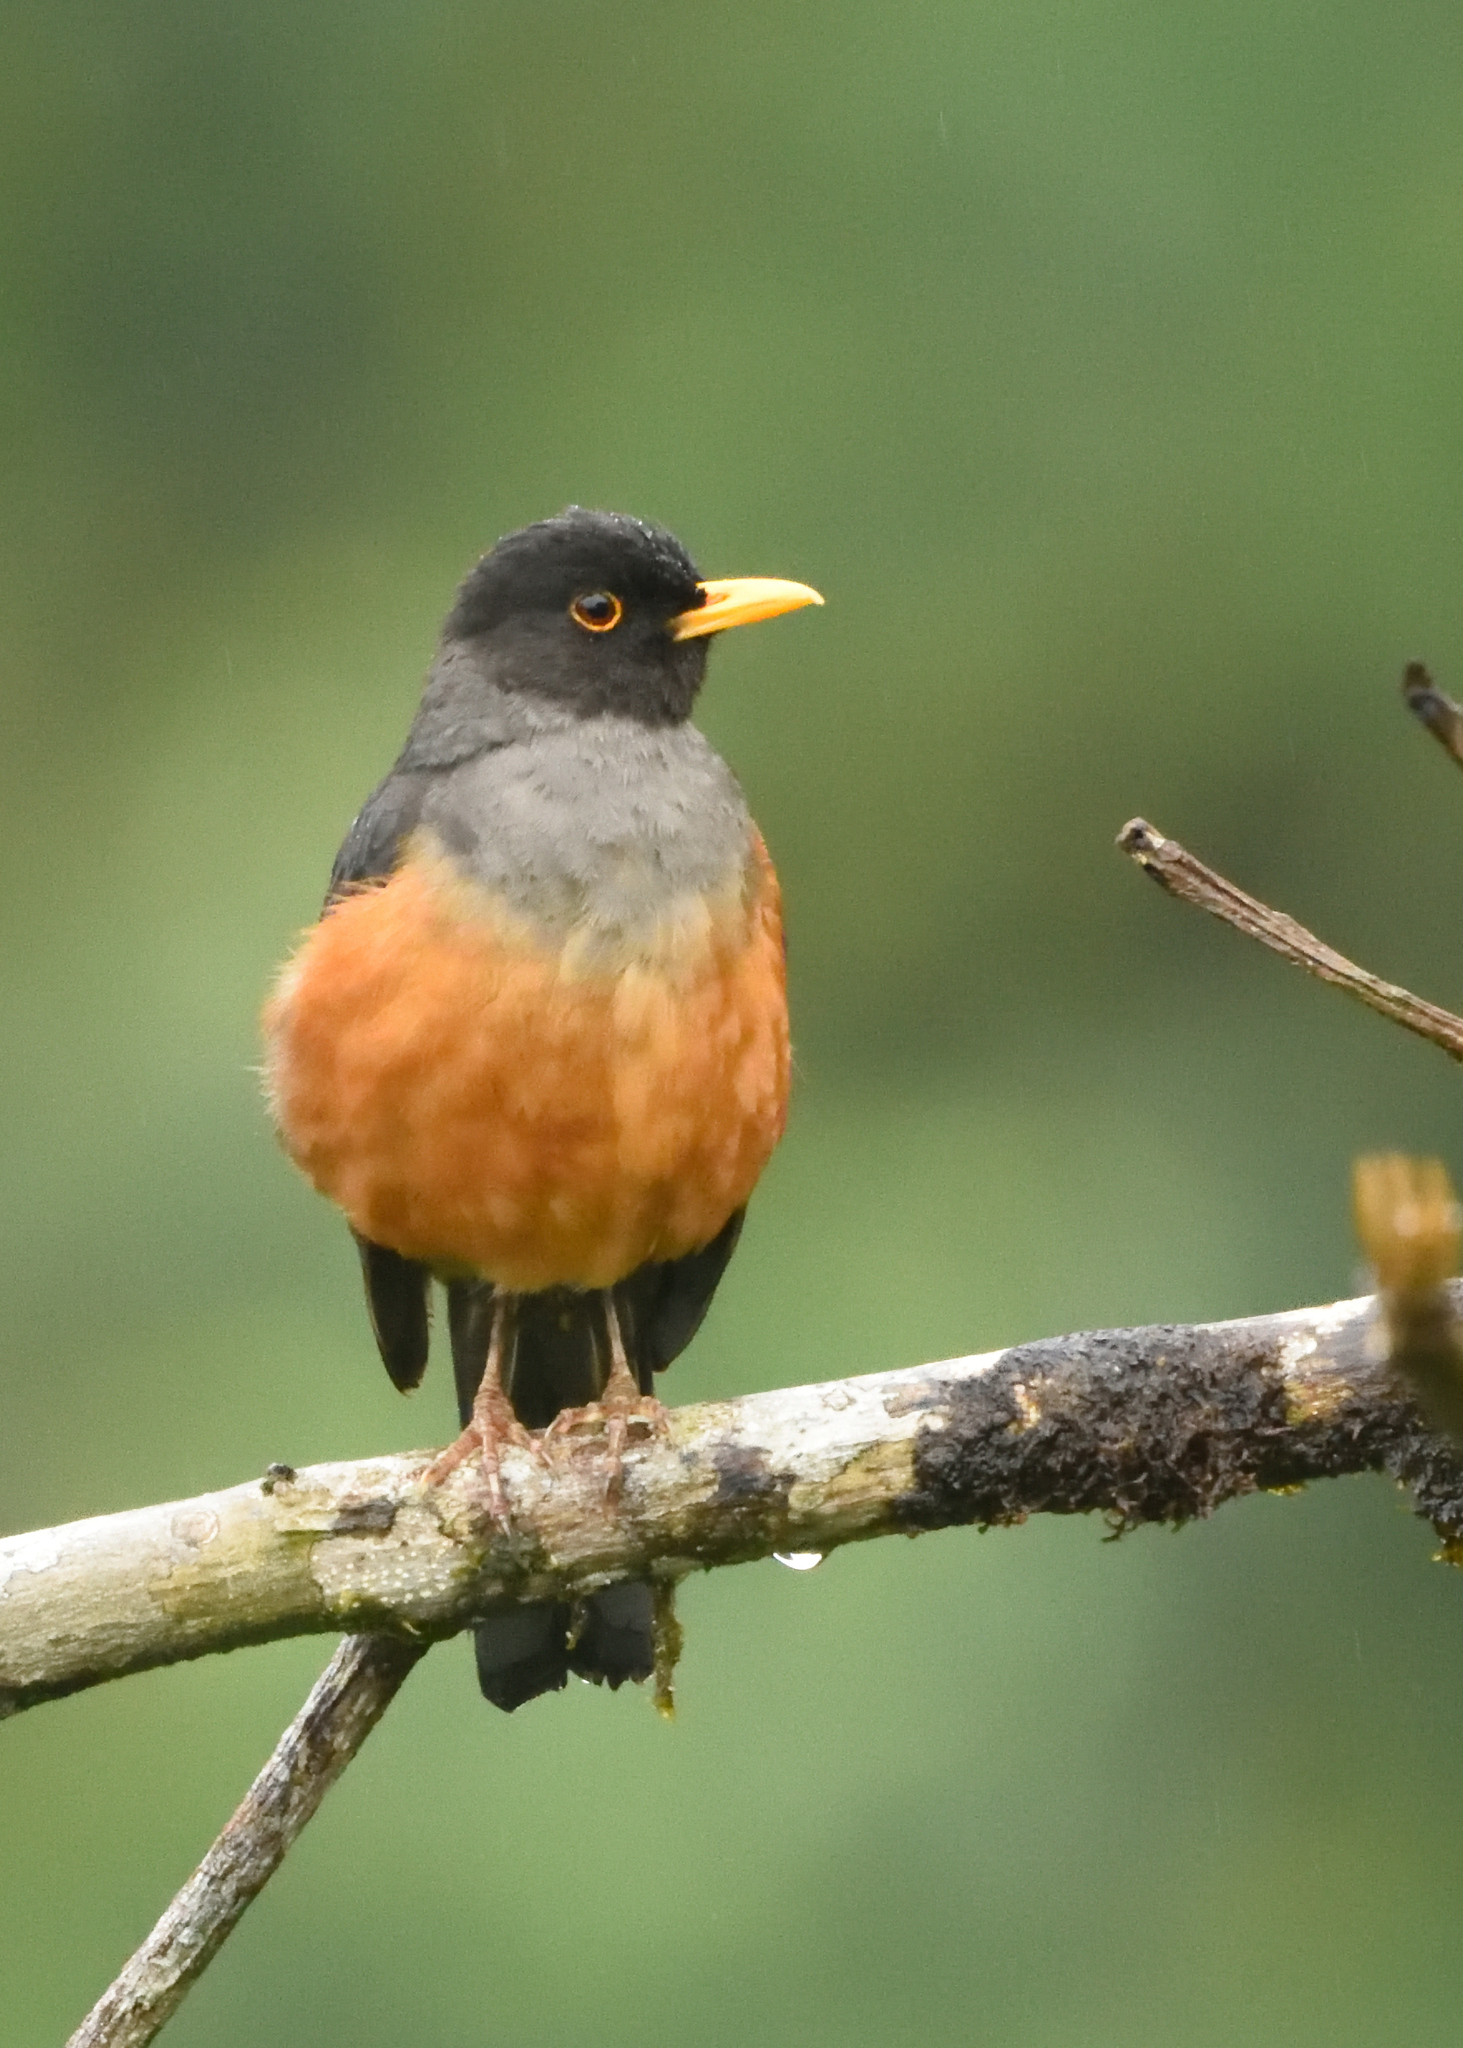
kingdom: Animalia
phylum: Chordata
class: Aves
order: Passeriformes
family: Turdidae
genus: Turdus
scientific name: Turdus fulviventris
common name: Chestnut-bellied thrush
